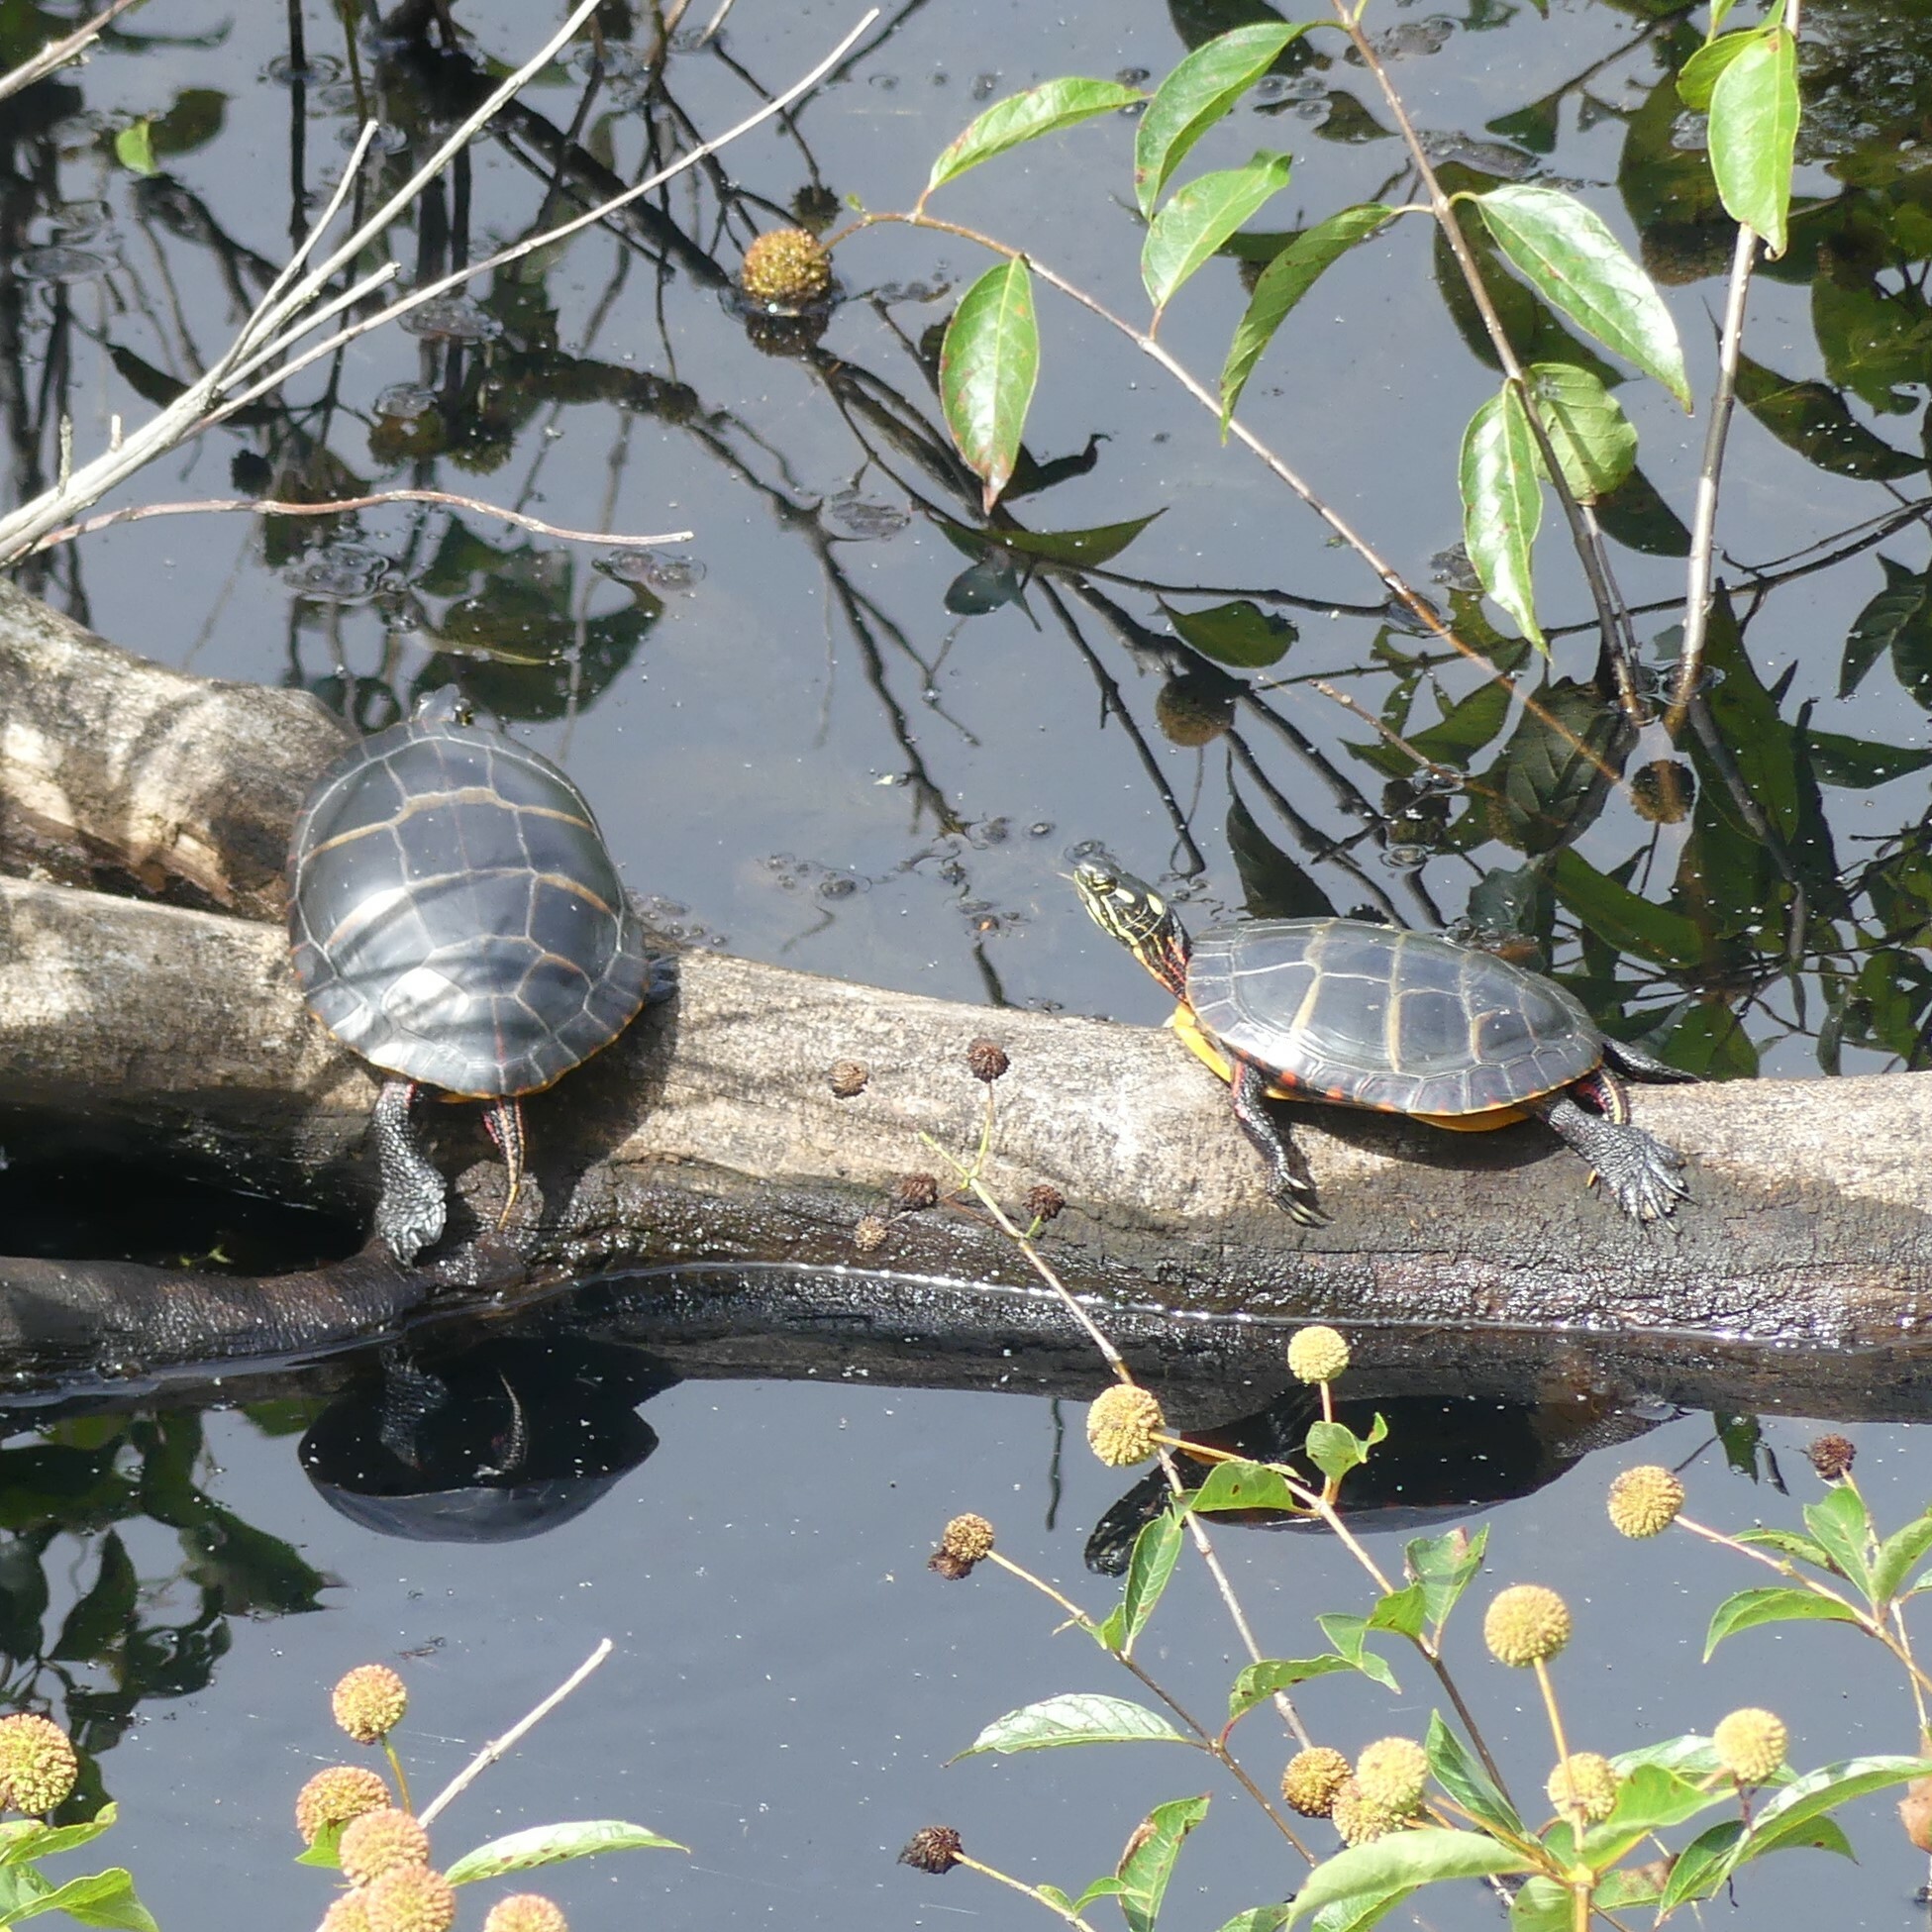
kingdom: Animalia
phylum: Chordata
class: Testudines
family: Emydidae
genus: Chrysemys
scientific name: Chrysemys picta
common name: Painted turtle
